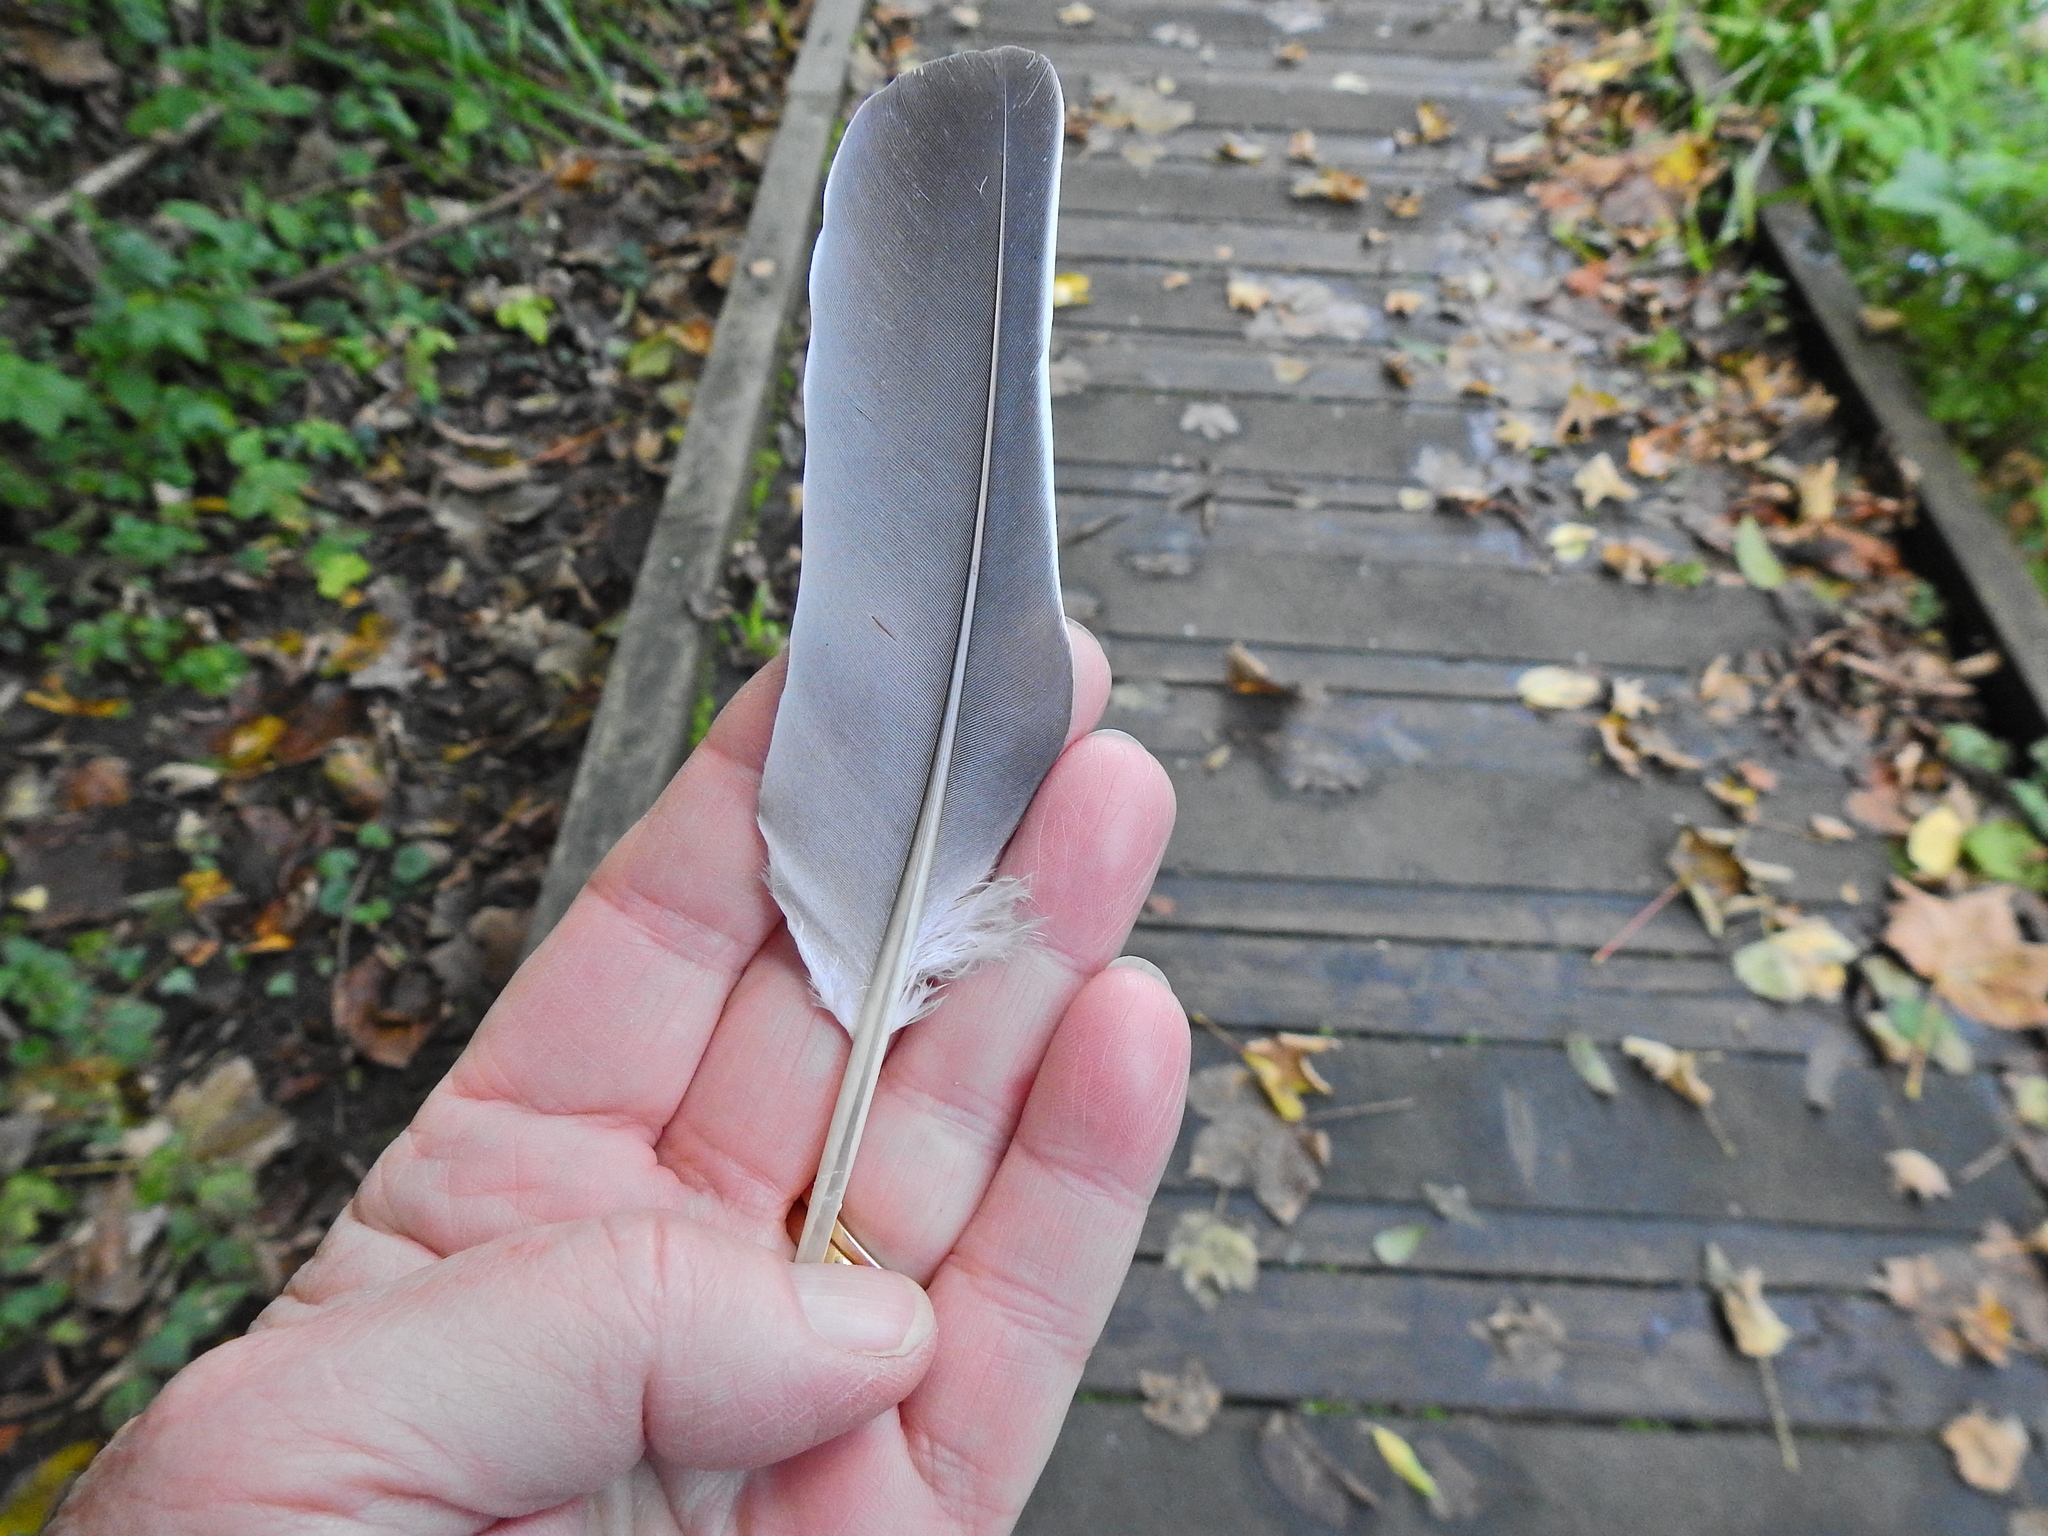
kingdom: Animalia
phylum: Chordata
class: Aves
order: Columbiformes
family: Columbidae
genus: Columba
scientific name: Columba palumbus
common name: Common wood pigeon
